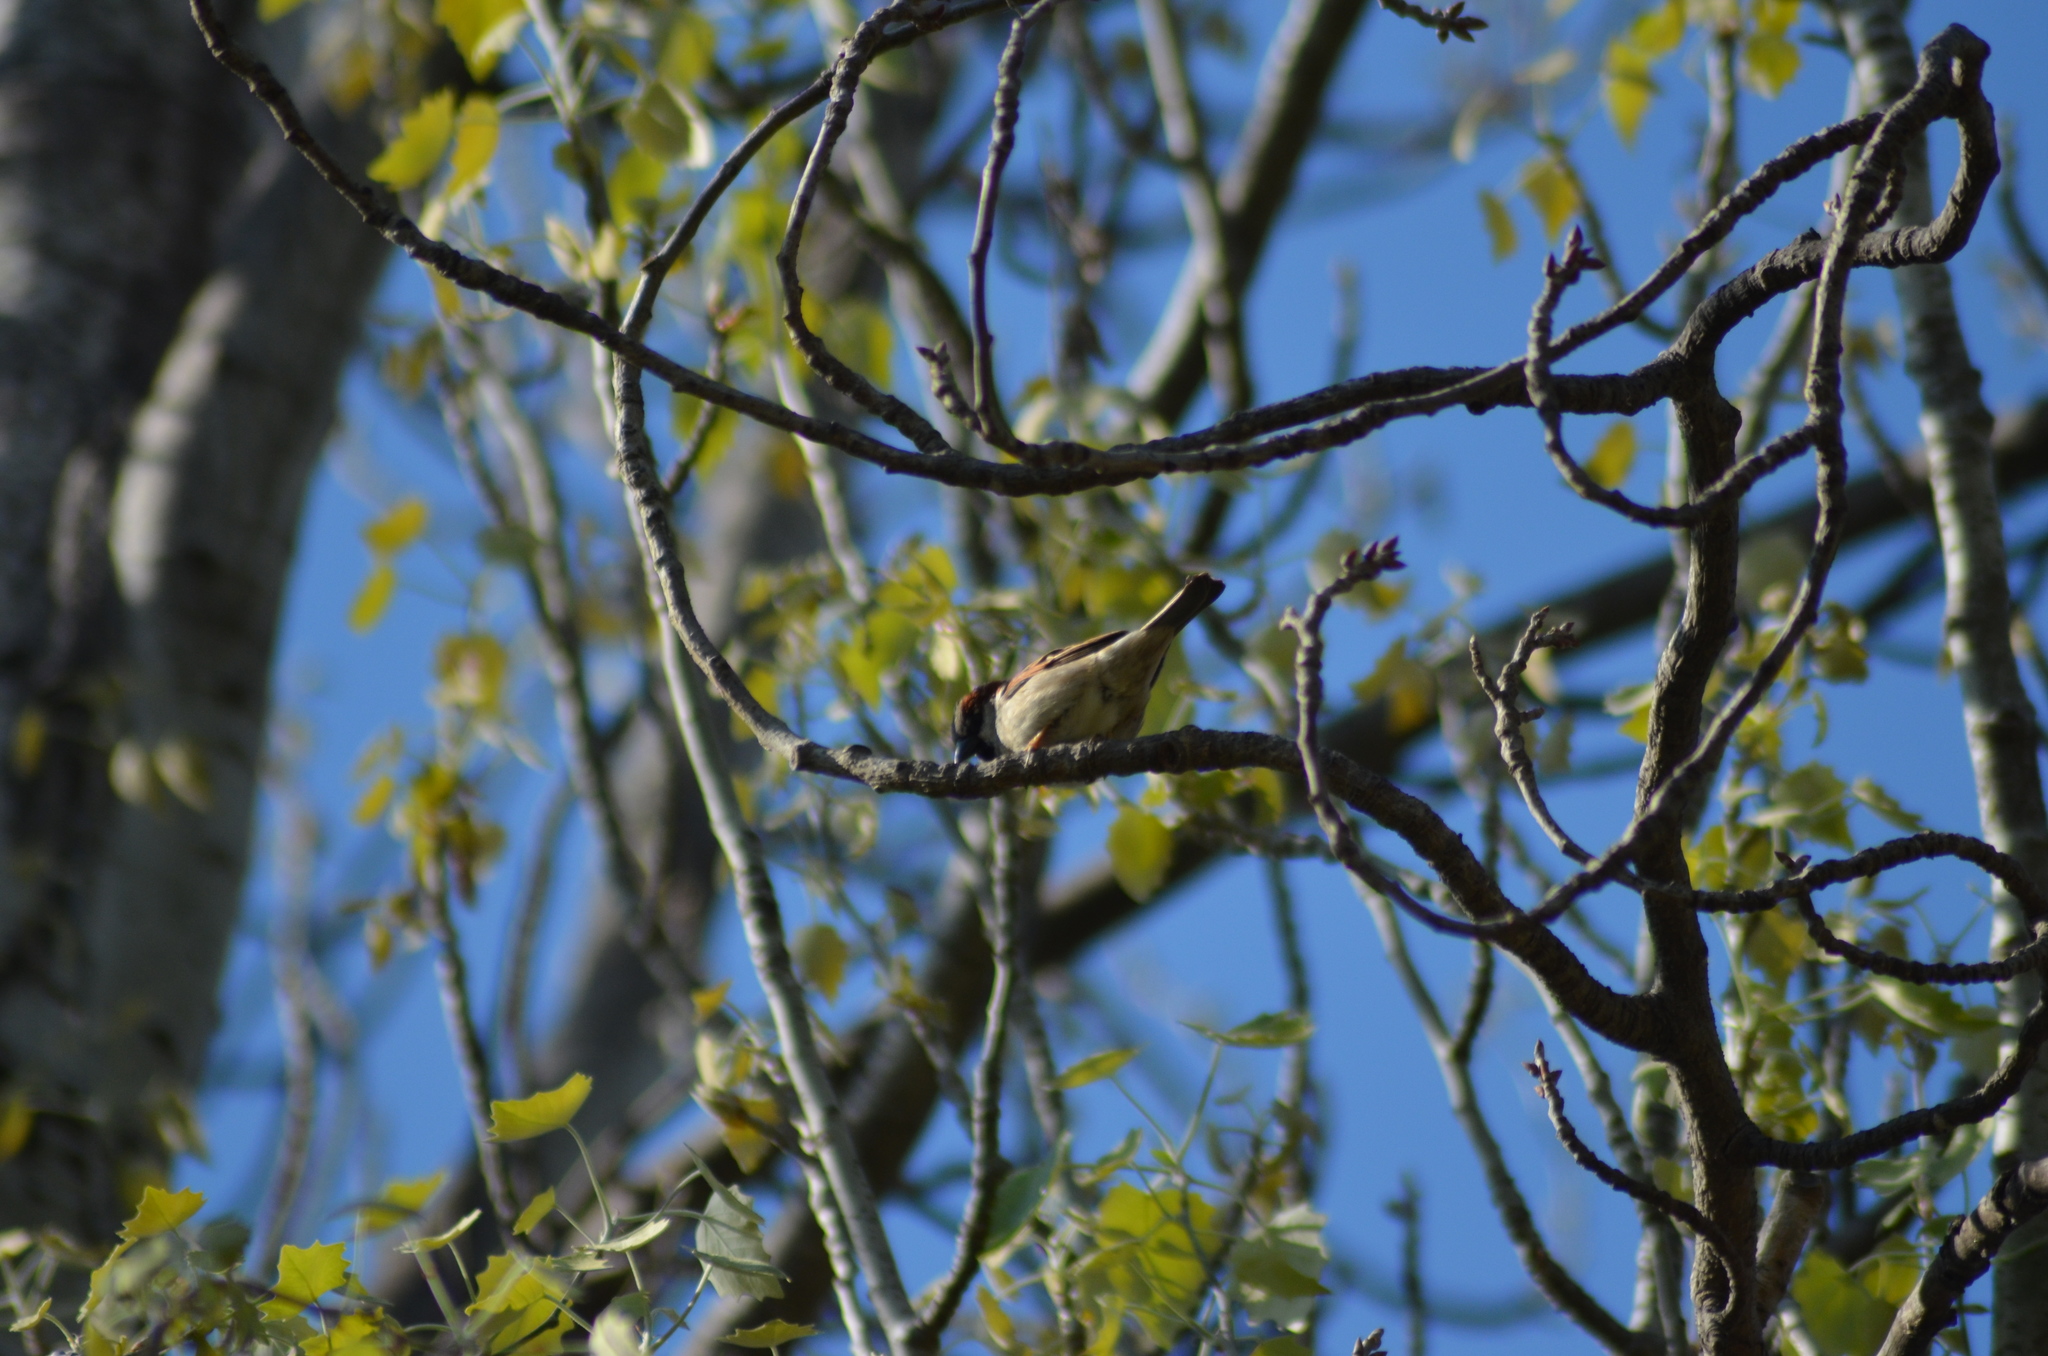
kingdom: Animalia
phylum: Chordata
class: Aves
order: Passeriformes
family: Passeridae
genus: Passer
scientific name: Passer domesticus
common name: House sparrow
